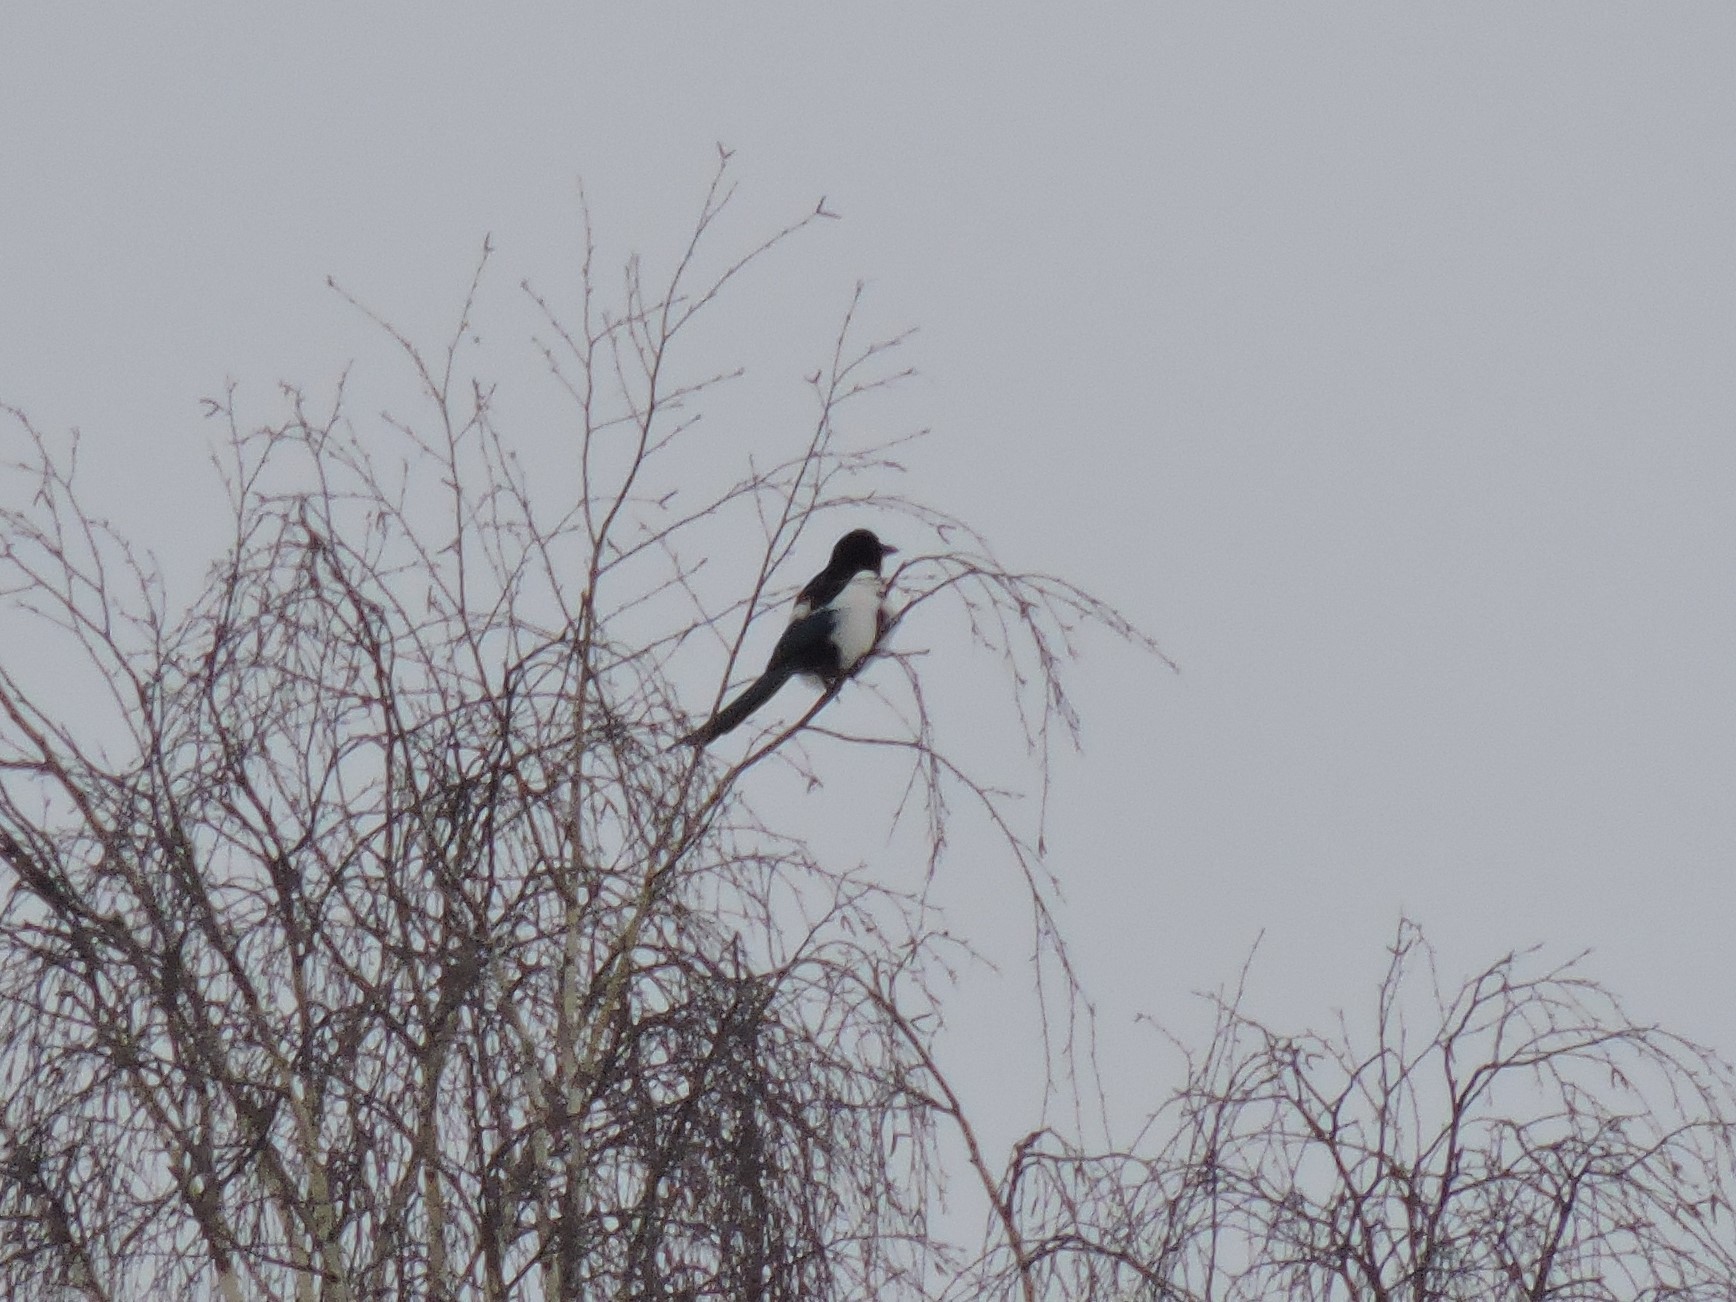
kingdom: Animalia
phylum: Chordata
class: Aves
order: Passeriformes
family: Corvidae
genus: Pica
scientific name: Pica pica
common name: Eurasian magpie
